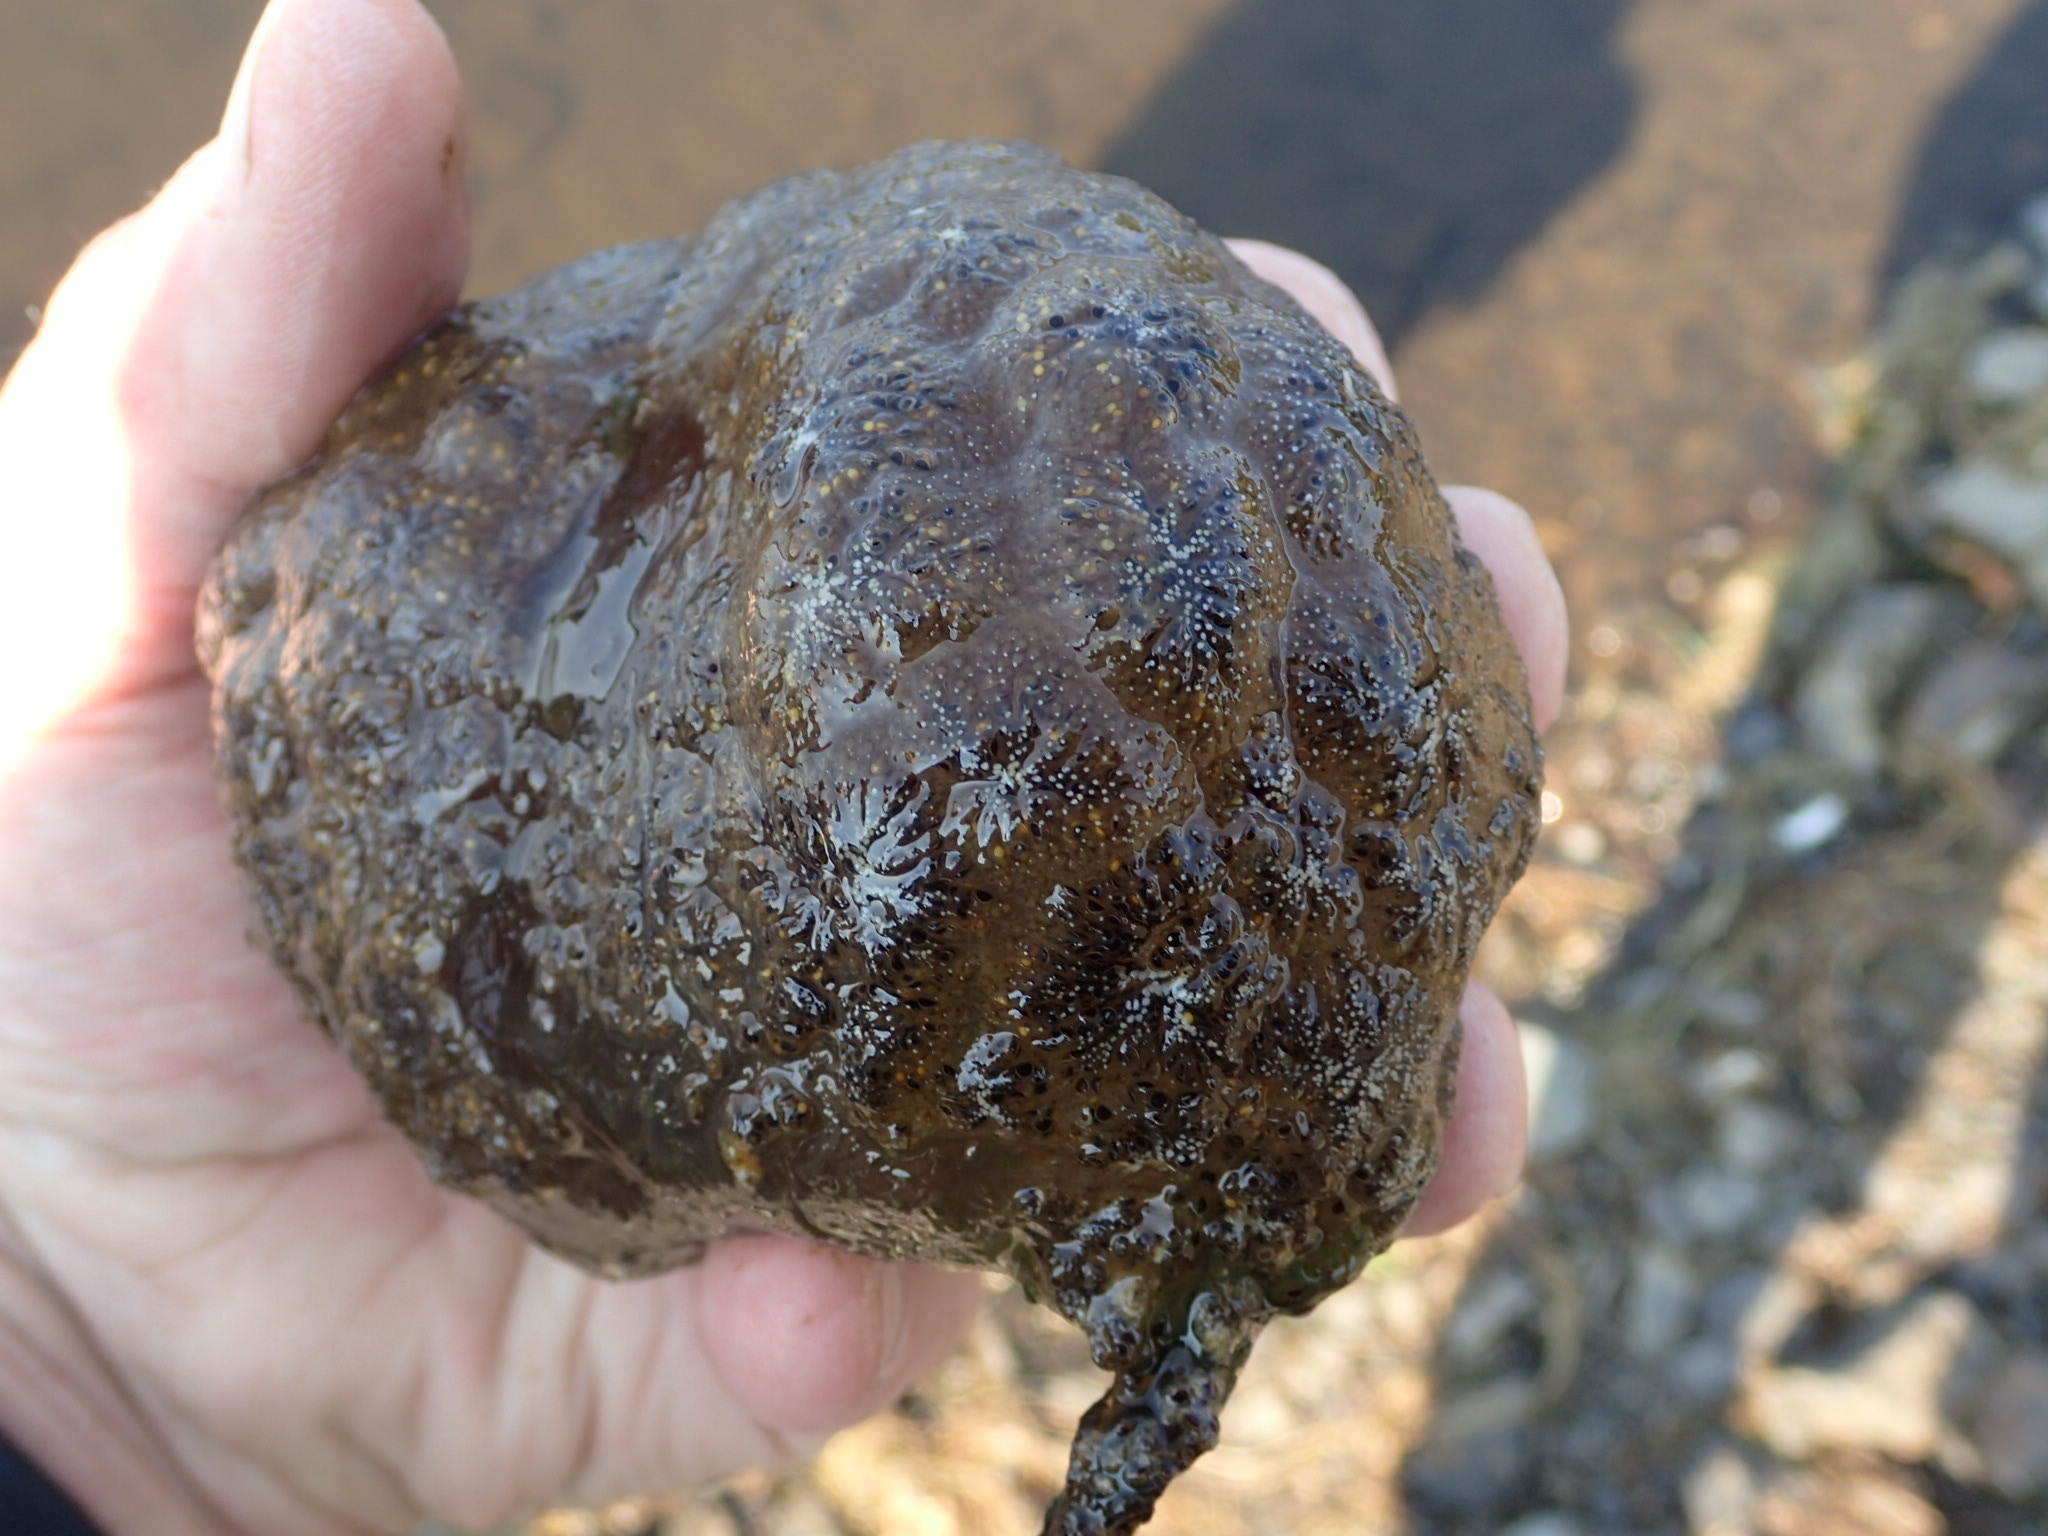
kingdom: Animalia
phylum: Bryozoa
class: Phylactolaemata
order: Plumatellida
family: Pectinatellidae
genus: Pectinatella
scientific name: Pectinatella magnifica
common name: Magnificent bryozoan
